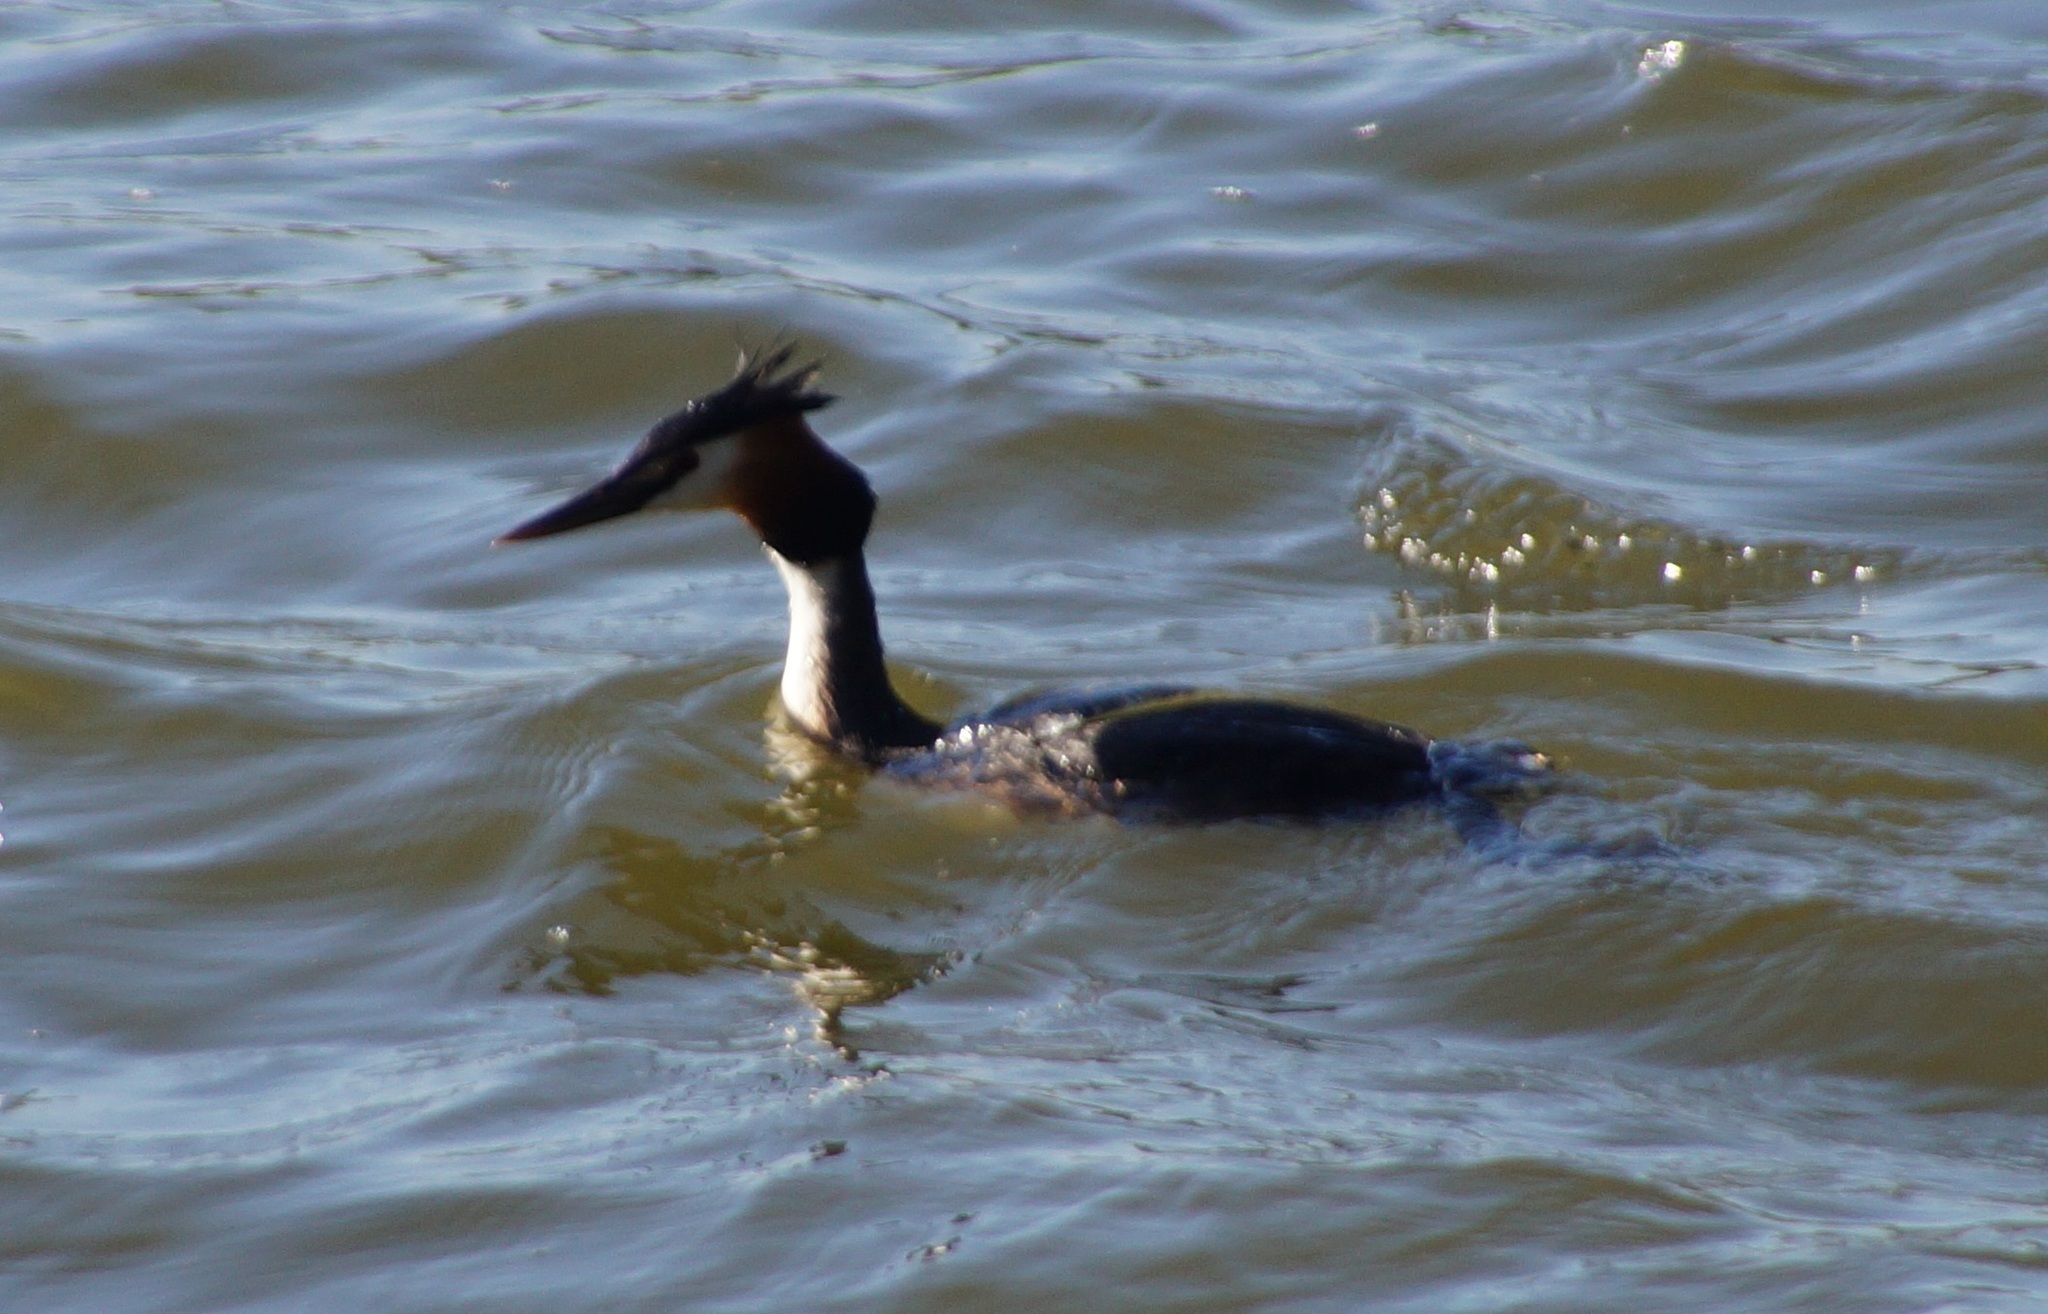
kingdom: Animalia
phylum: Chordata
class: Aves
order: Podicipediformes
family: Podicipedidae
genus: Podiceps
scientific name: Podiceps cristatus
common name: Great crested grebe
